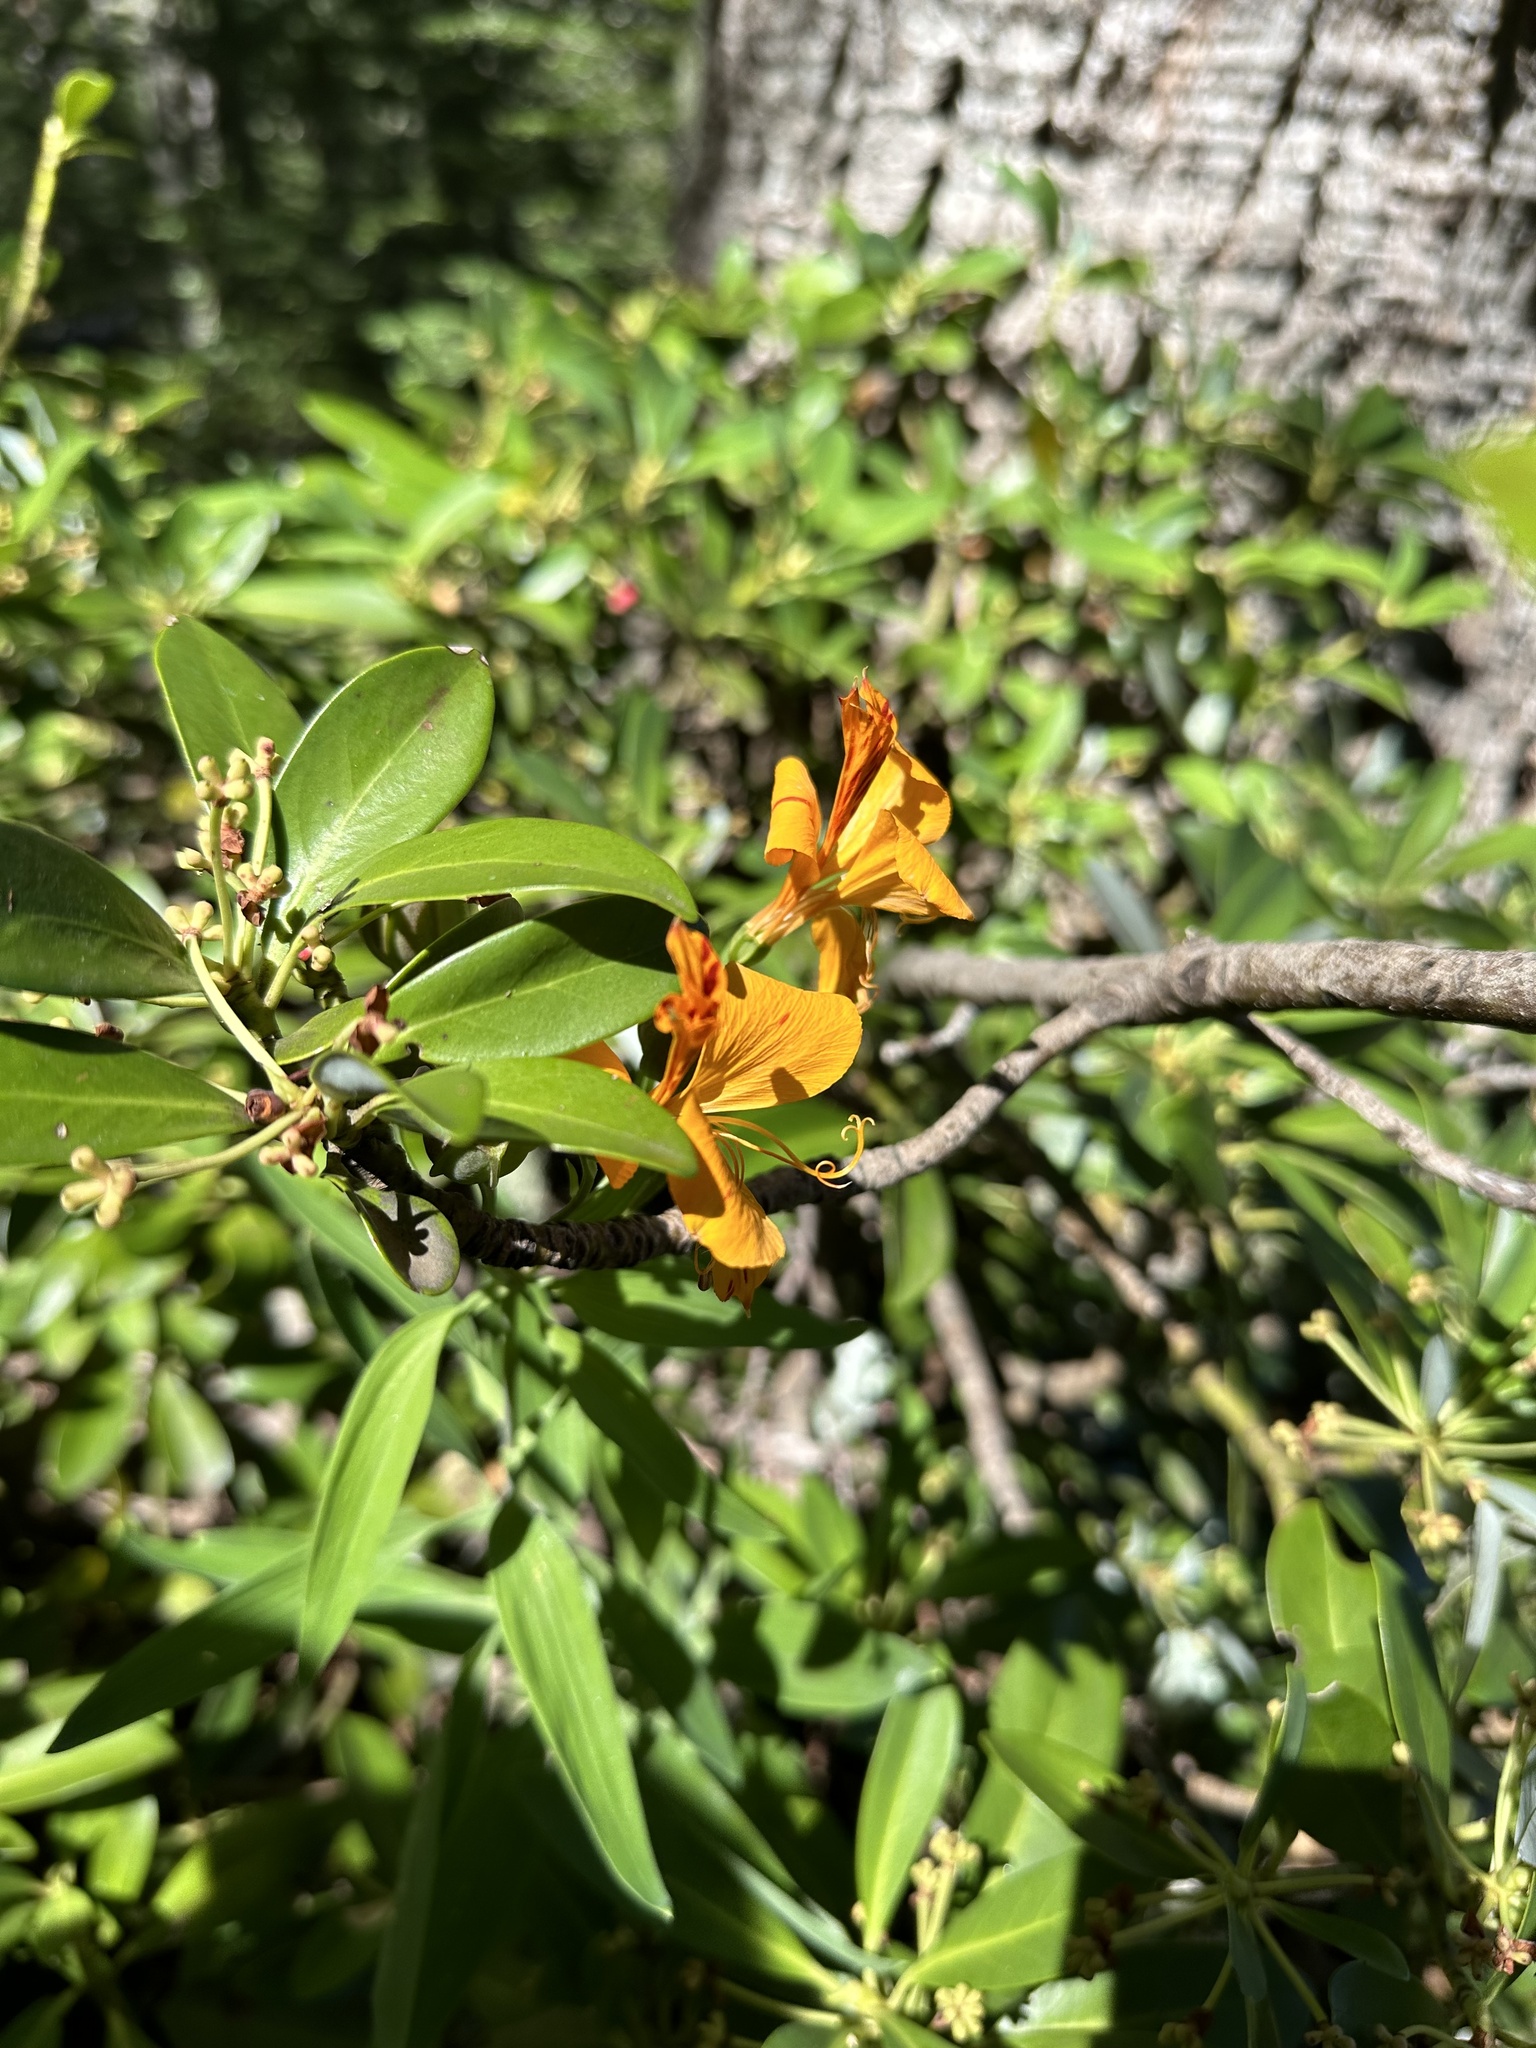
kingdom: Plantae
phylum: Tracheophyta
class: Liliopsida
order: Liliales
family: Alstroemeriaceae
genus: Alstroemeria
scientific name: Alstroemeria aurea
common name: Peruvian lily
